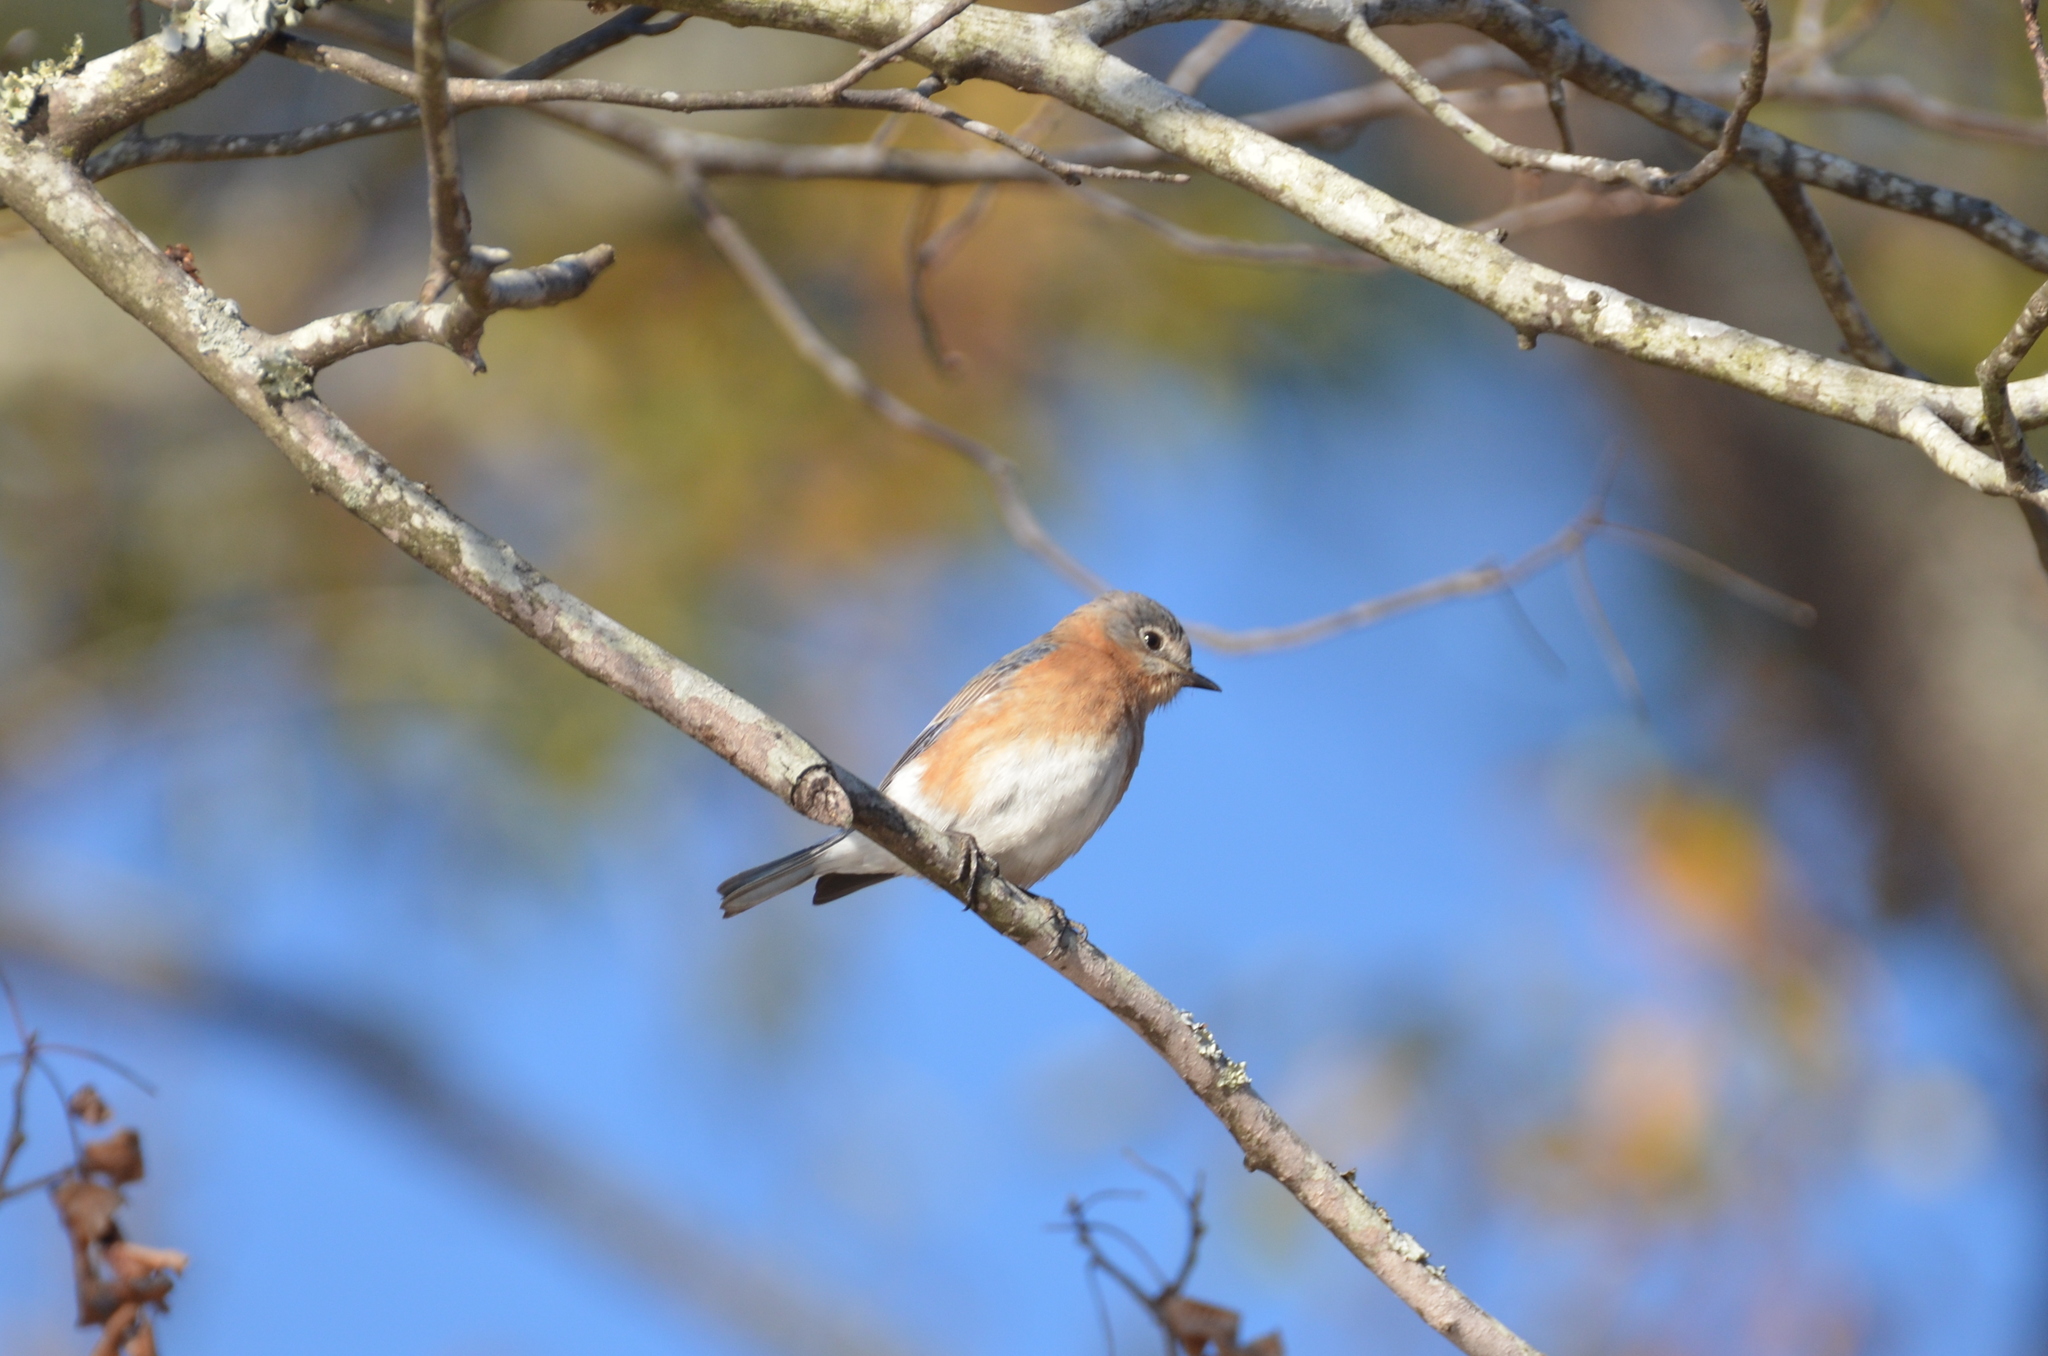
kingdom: Animalia
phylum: Chordata
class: Aves
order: Passeriformes
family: Turdidae
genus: Sialia
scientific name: Sialia sialis
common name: Eastern bluebird
